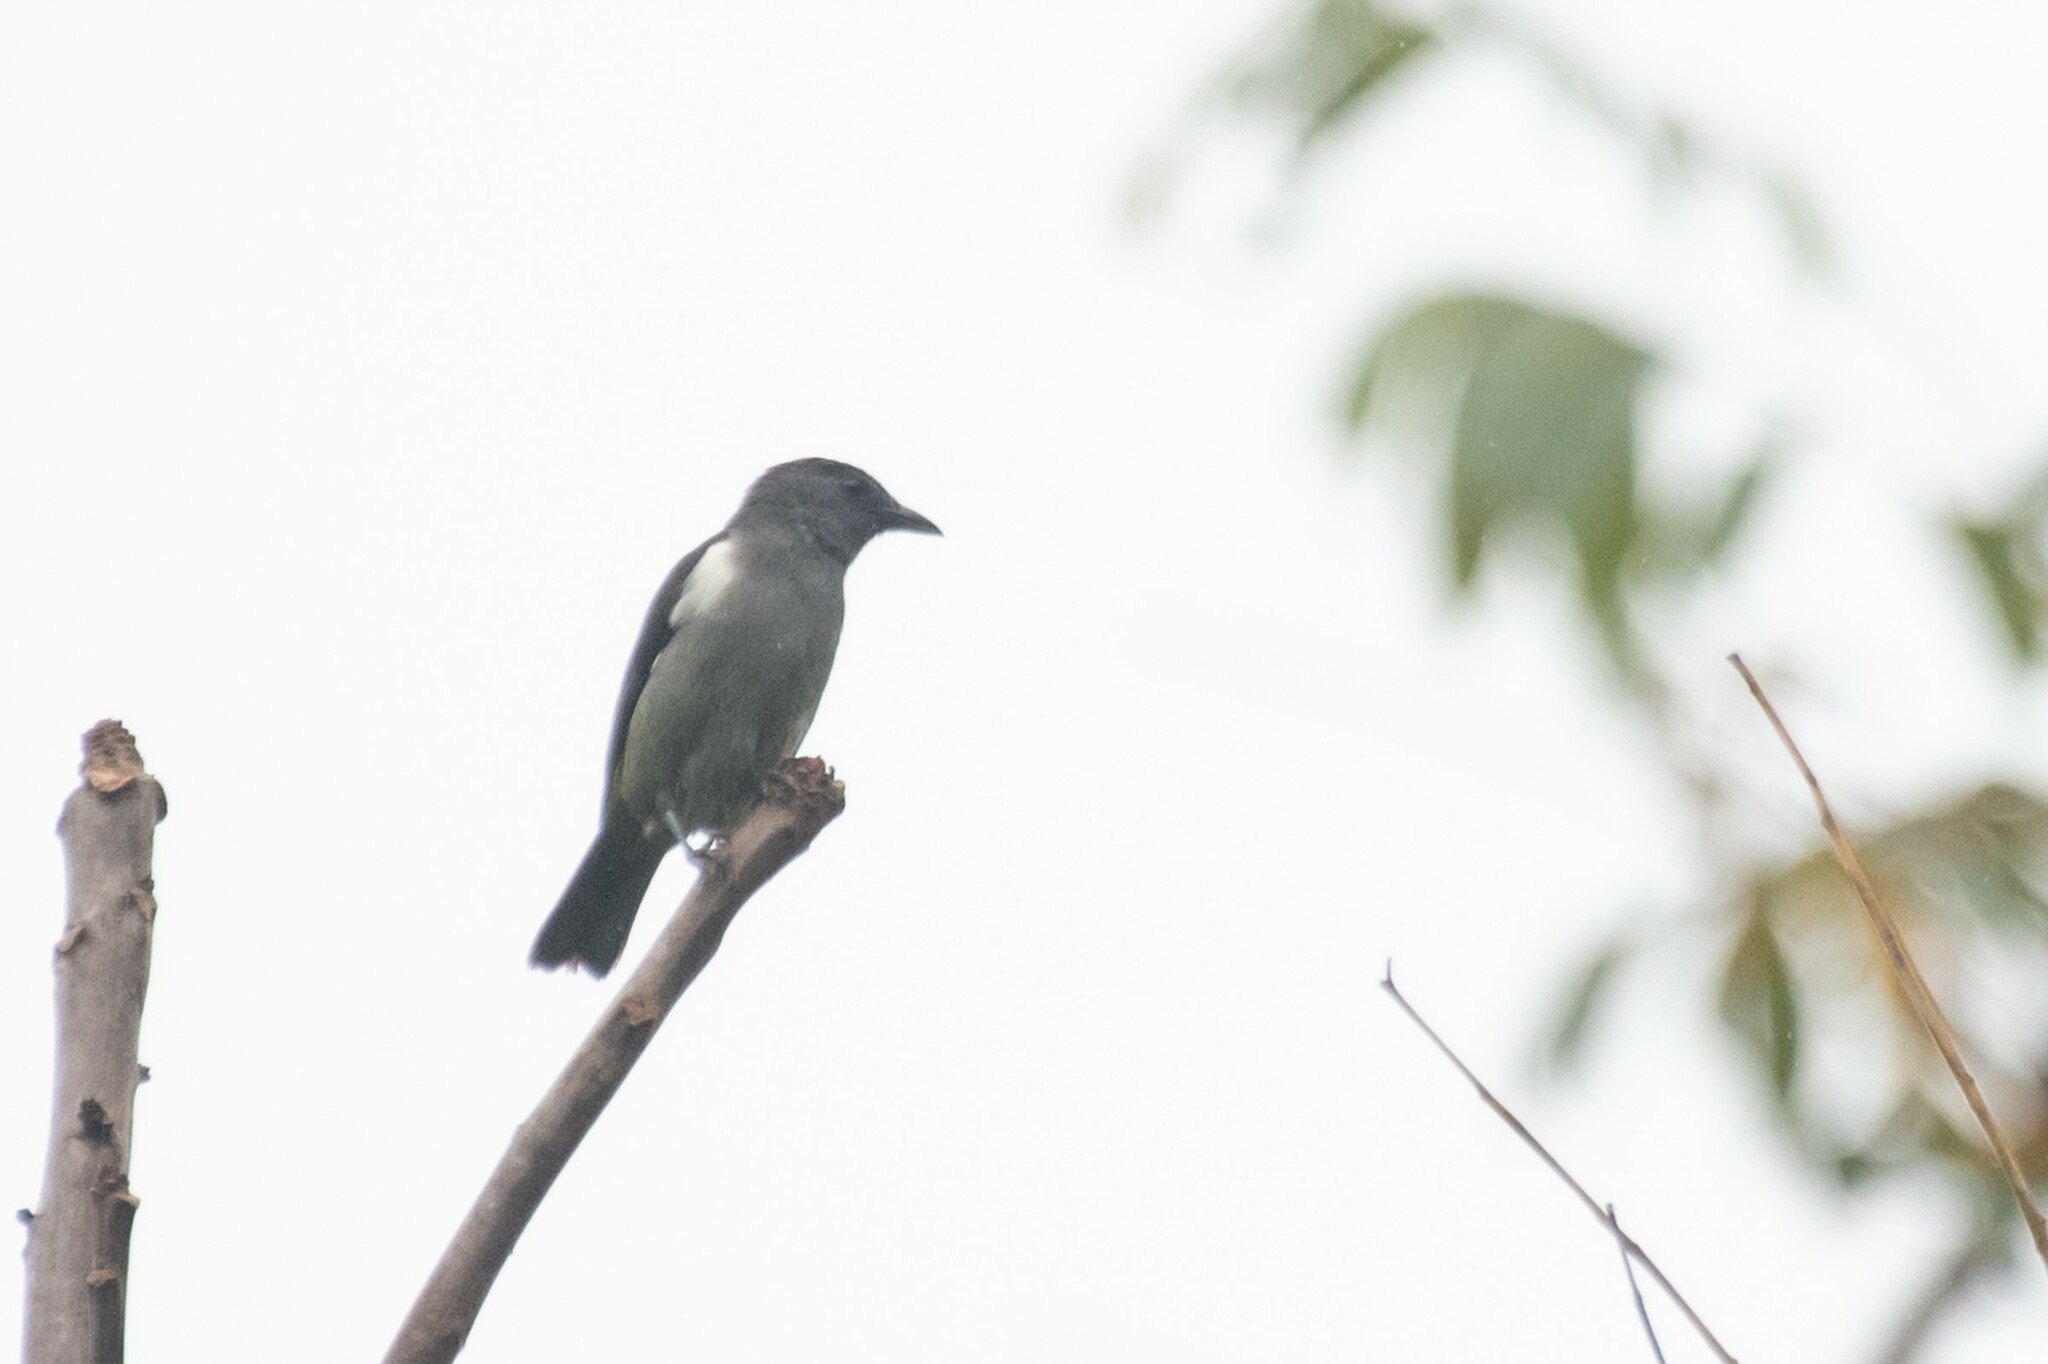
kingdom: Animalia
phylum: Chordata
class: Aves
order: Passeriformes
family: Thraupidae
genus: Heterospingus
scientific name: Heterospingus rubrifrons
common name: Sulphur-rumped tanager
